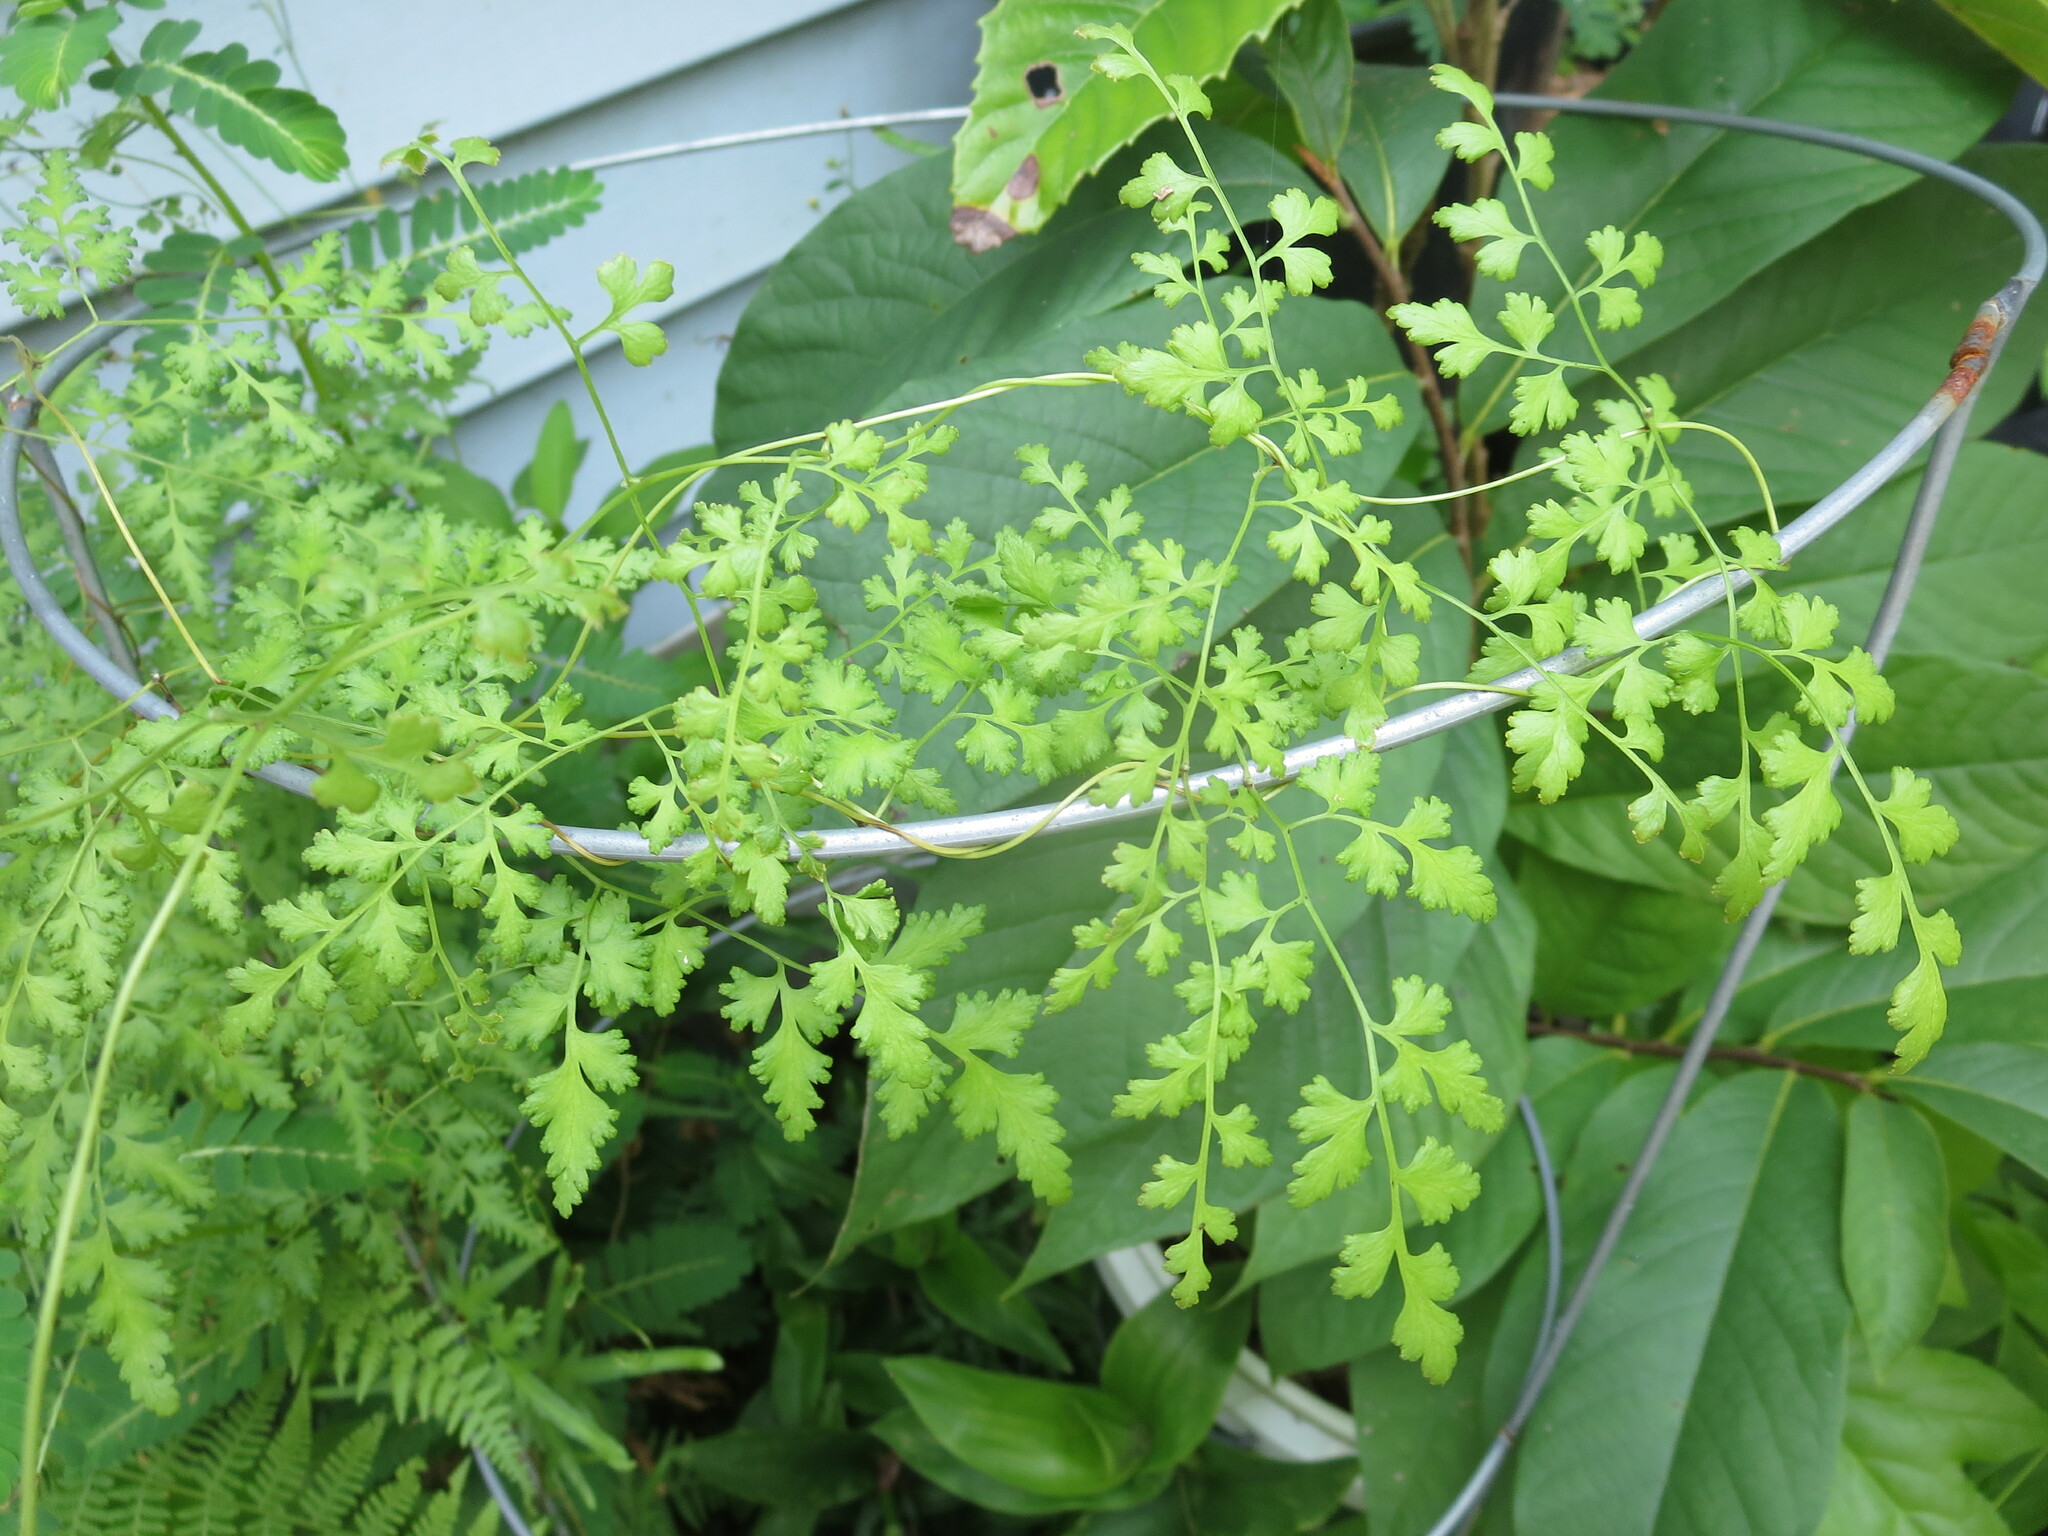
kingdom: Plantae
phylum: Tracheophyta
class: Polypodiopsida
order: Schizaeales
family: Lygodiaceae
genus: Lygodium
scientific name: Lygodium japonicum
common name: Japanese climbing fern
